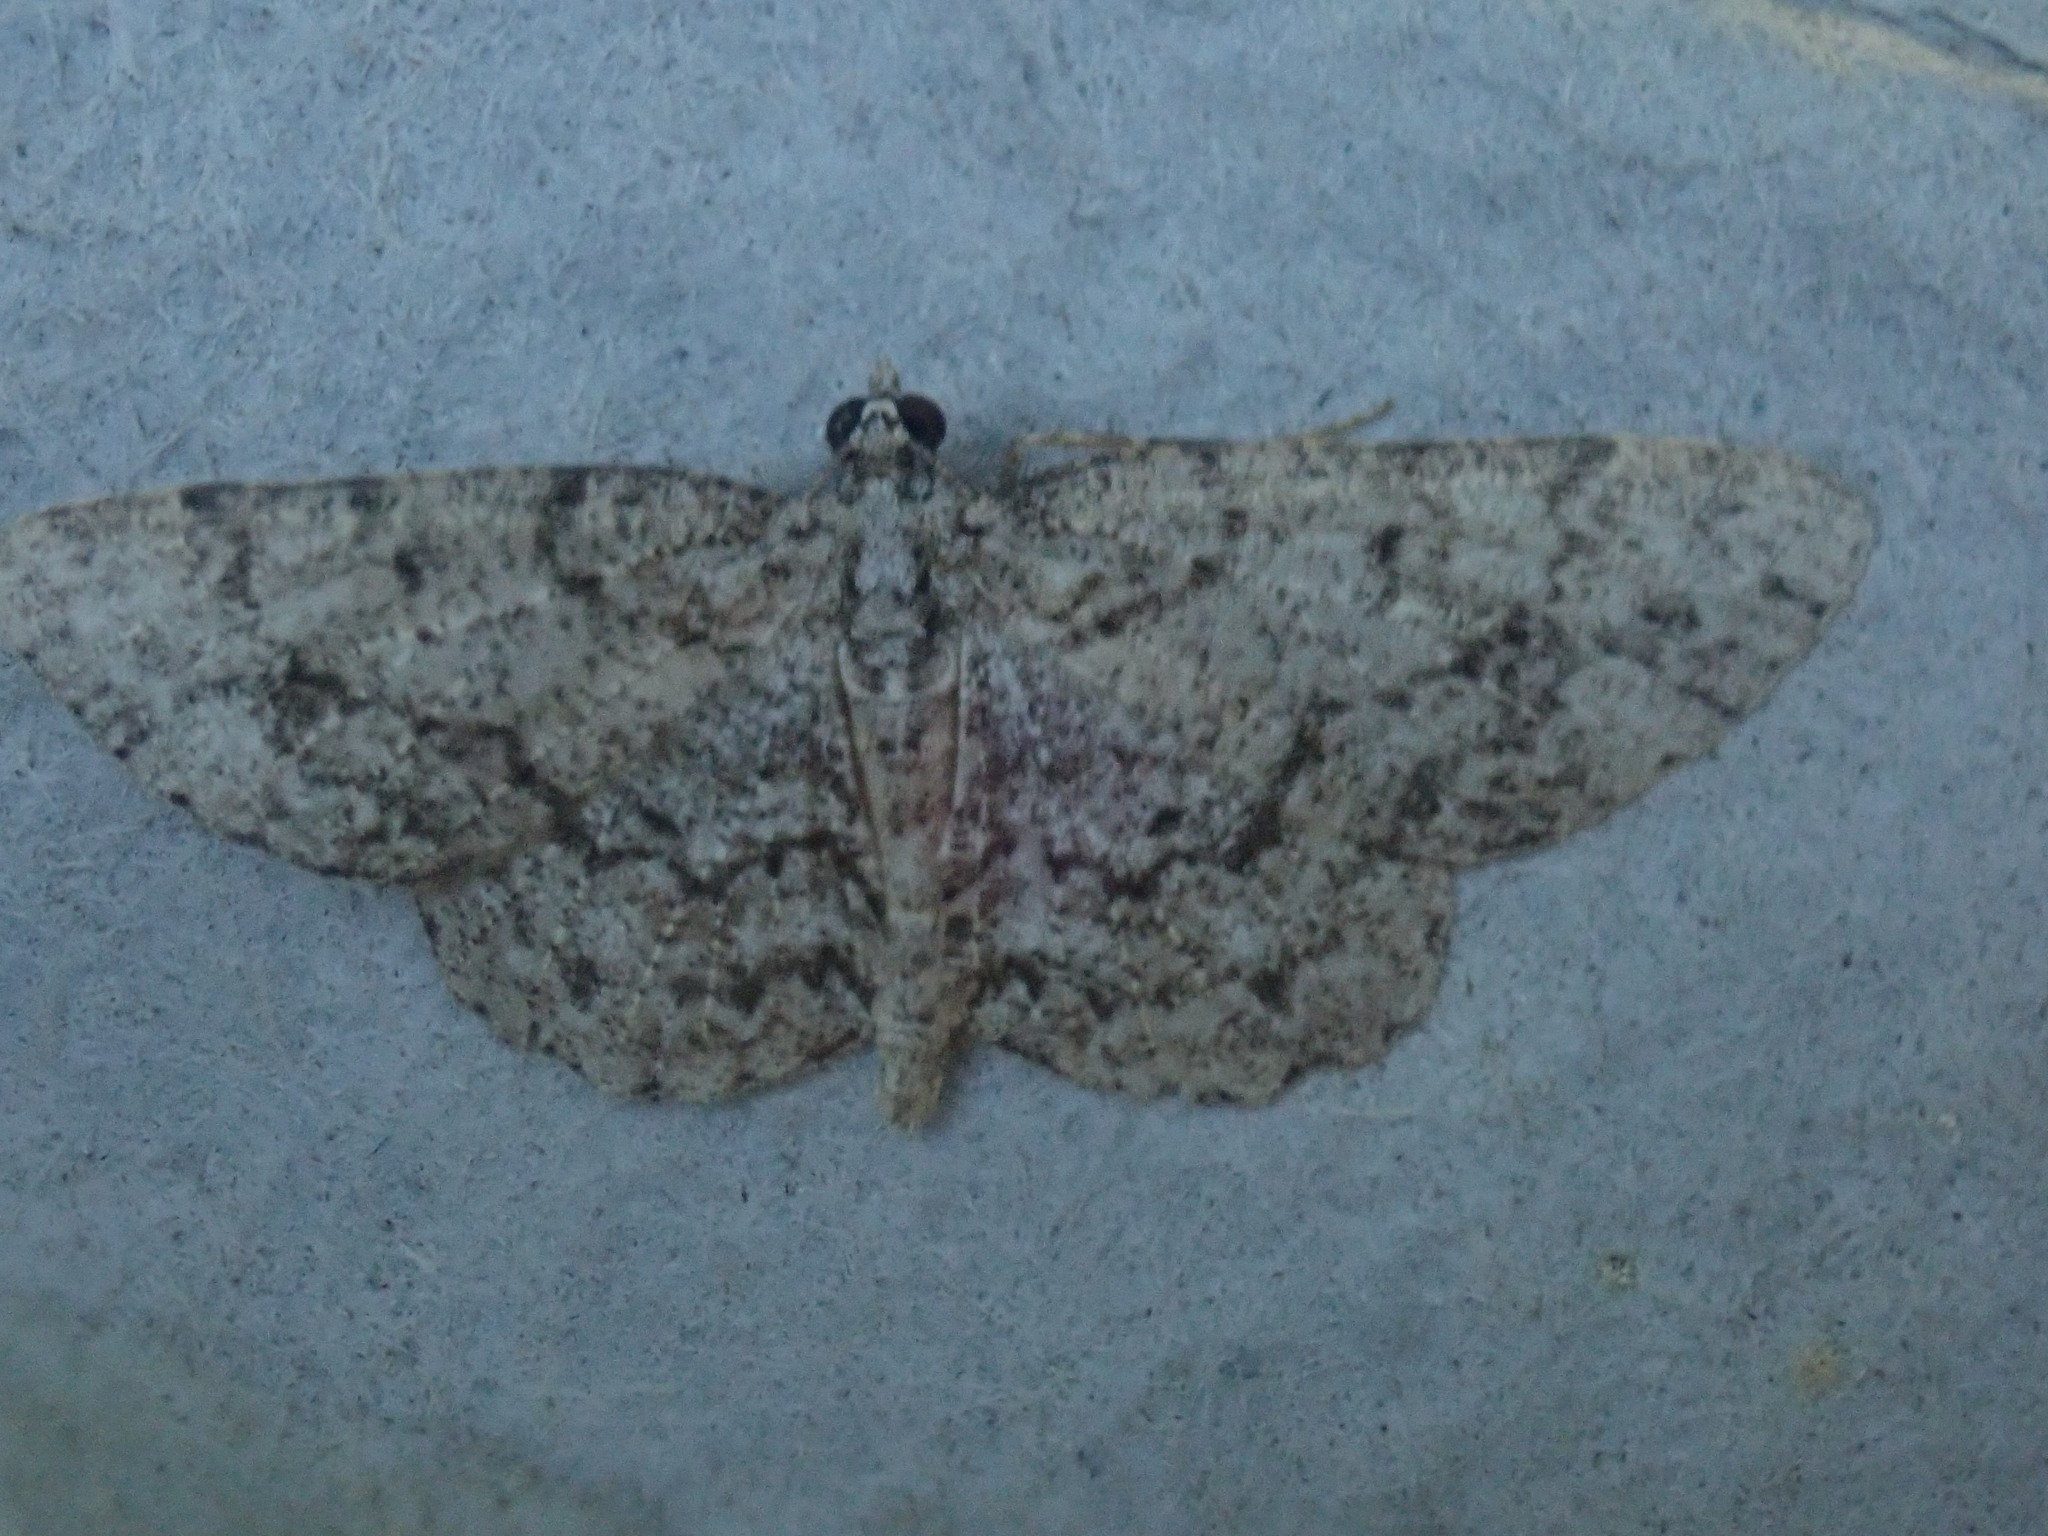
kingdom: Animalia
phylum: Arthropoda
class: Insecta
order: Lepidoptera
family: Geometridae
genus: Protoboarmia
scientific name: Protoboarmia porcelaria
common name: Porcelain gray
